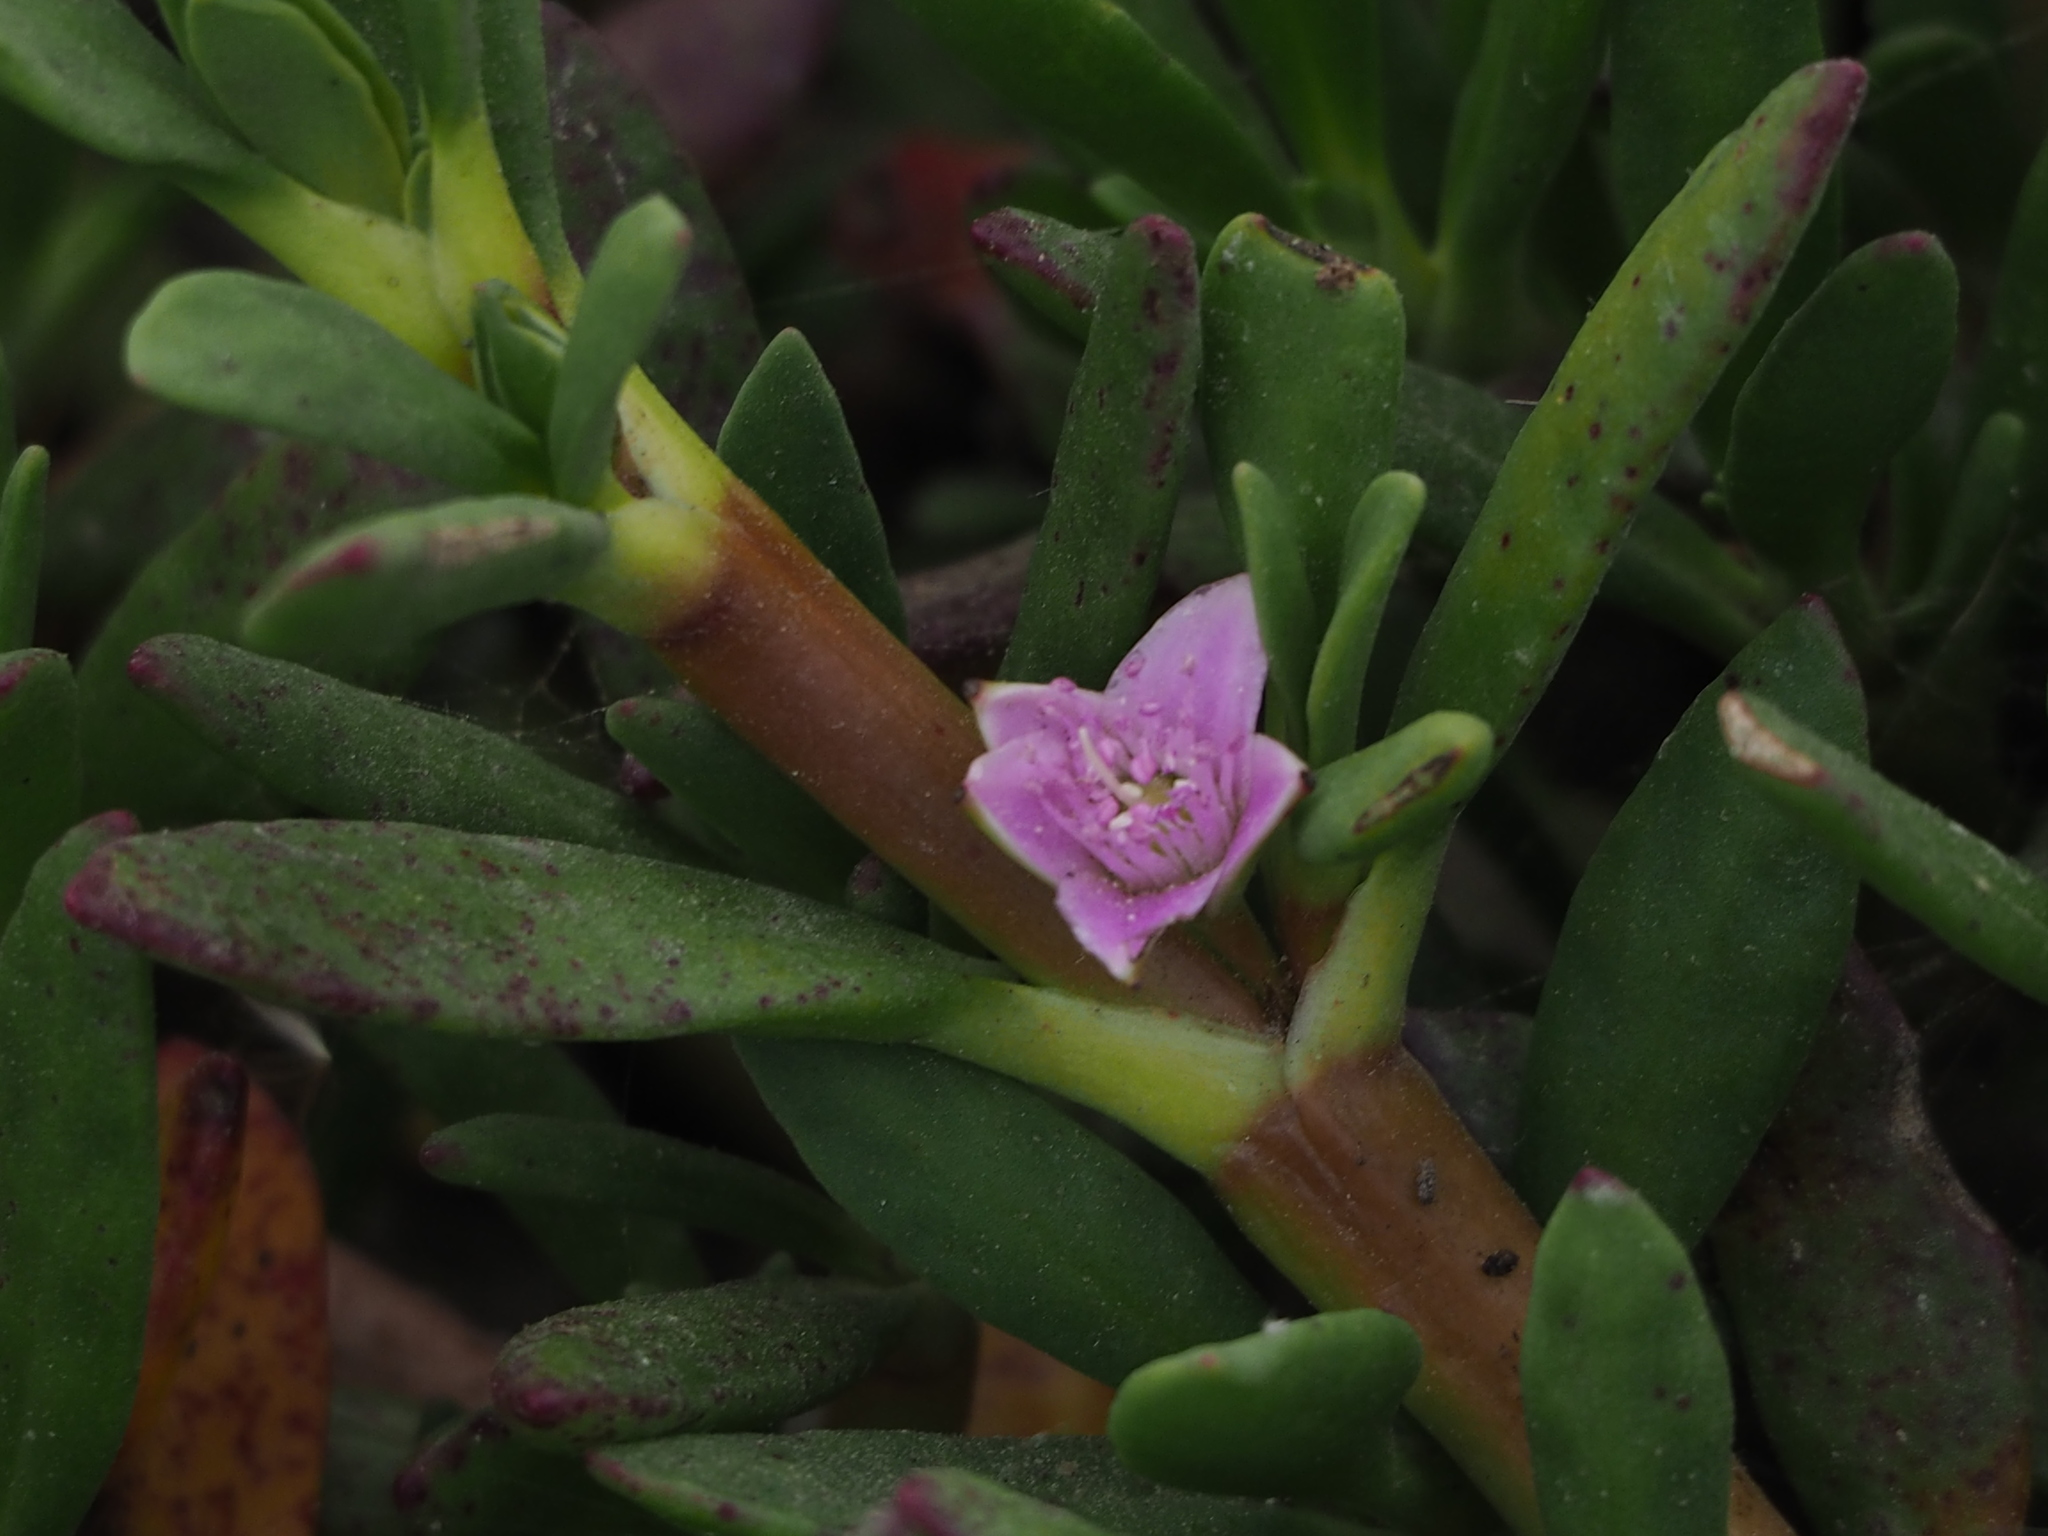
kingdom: Plantae
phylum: Tracheophyta
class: Magnoliopsida
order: Caryophyllales
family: Aizoaceae
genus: Sesuvium
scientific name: Sesuvium portulacastrum
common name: Sea-purslane
